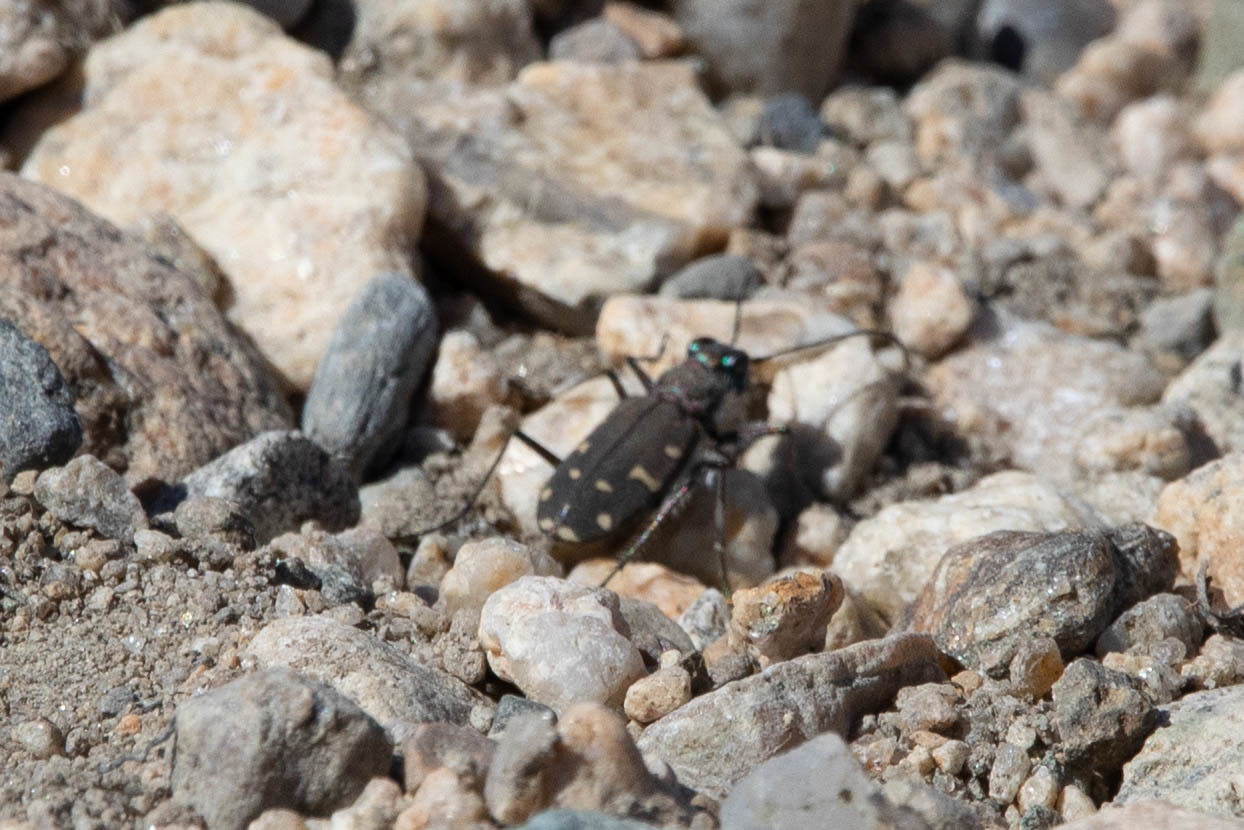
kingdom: Animalia
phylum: Arthropoda
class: Insecta
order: Coleoptera
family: Carabidae
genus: Cicindela
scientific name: Cicindela oregona
